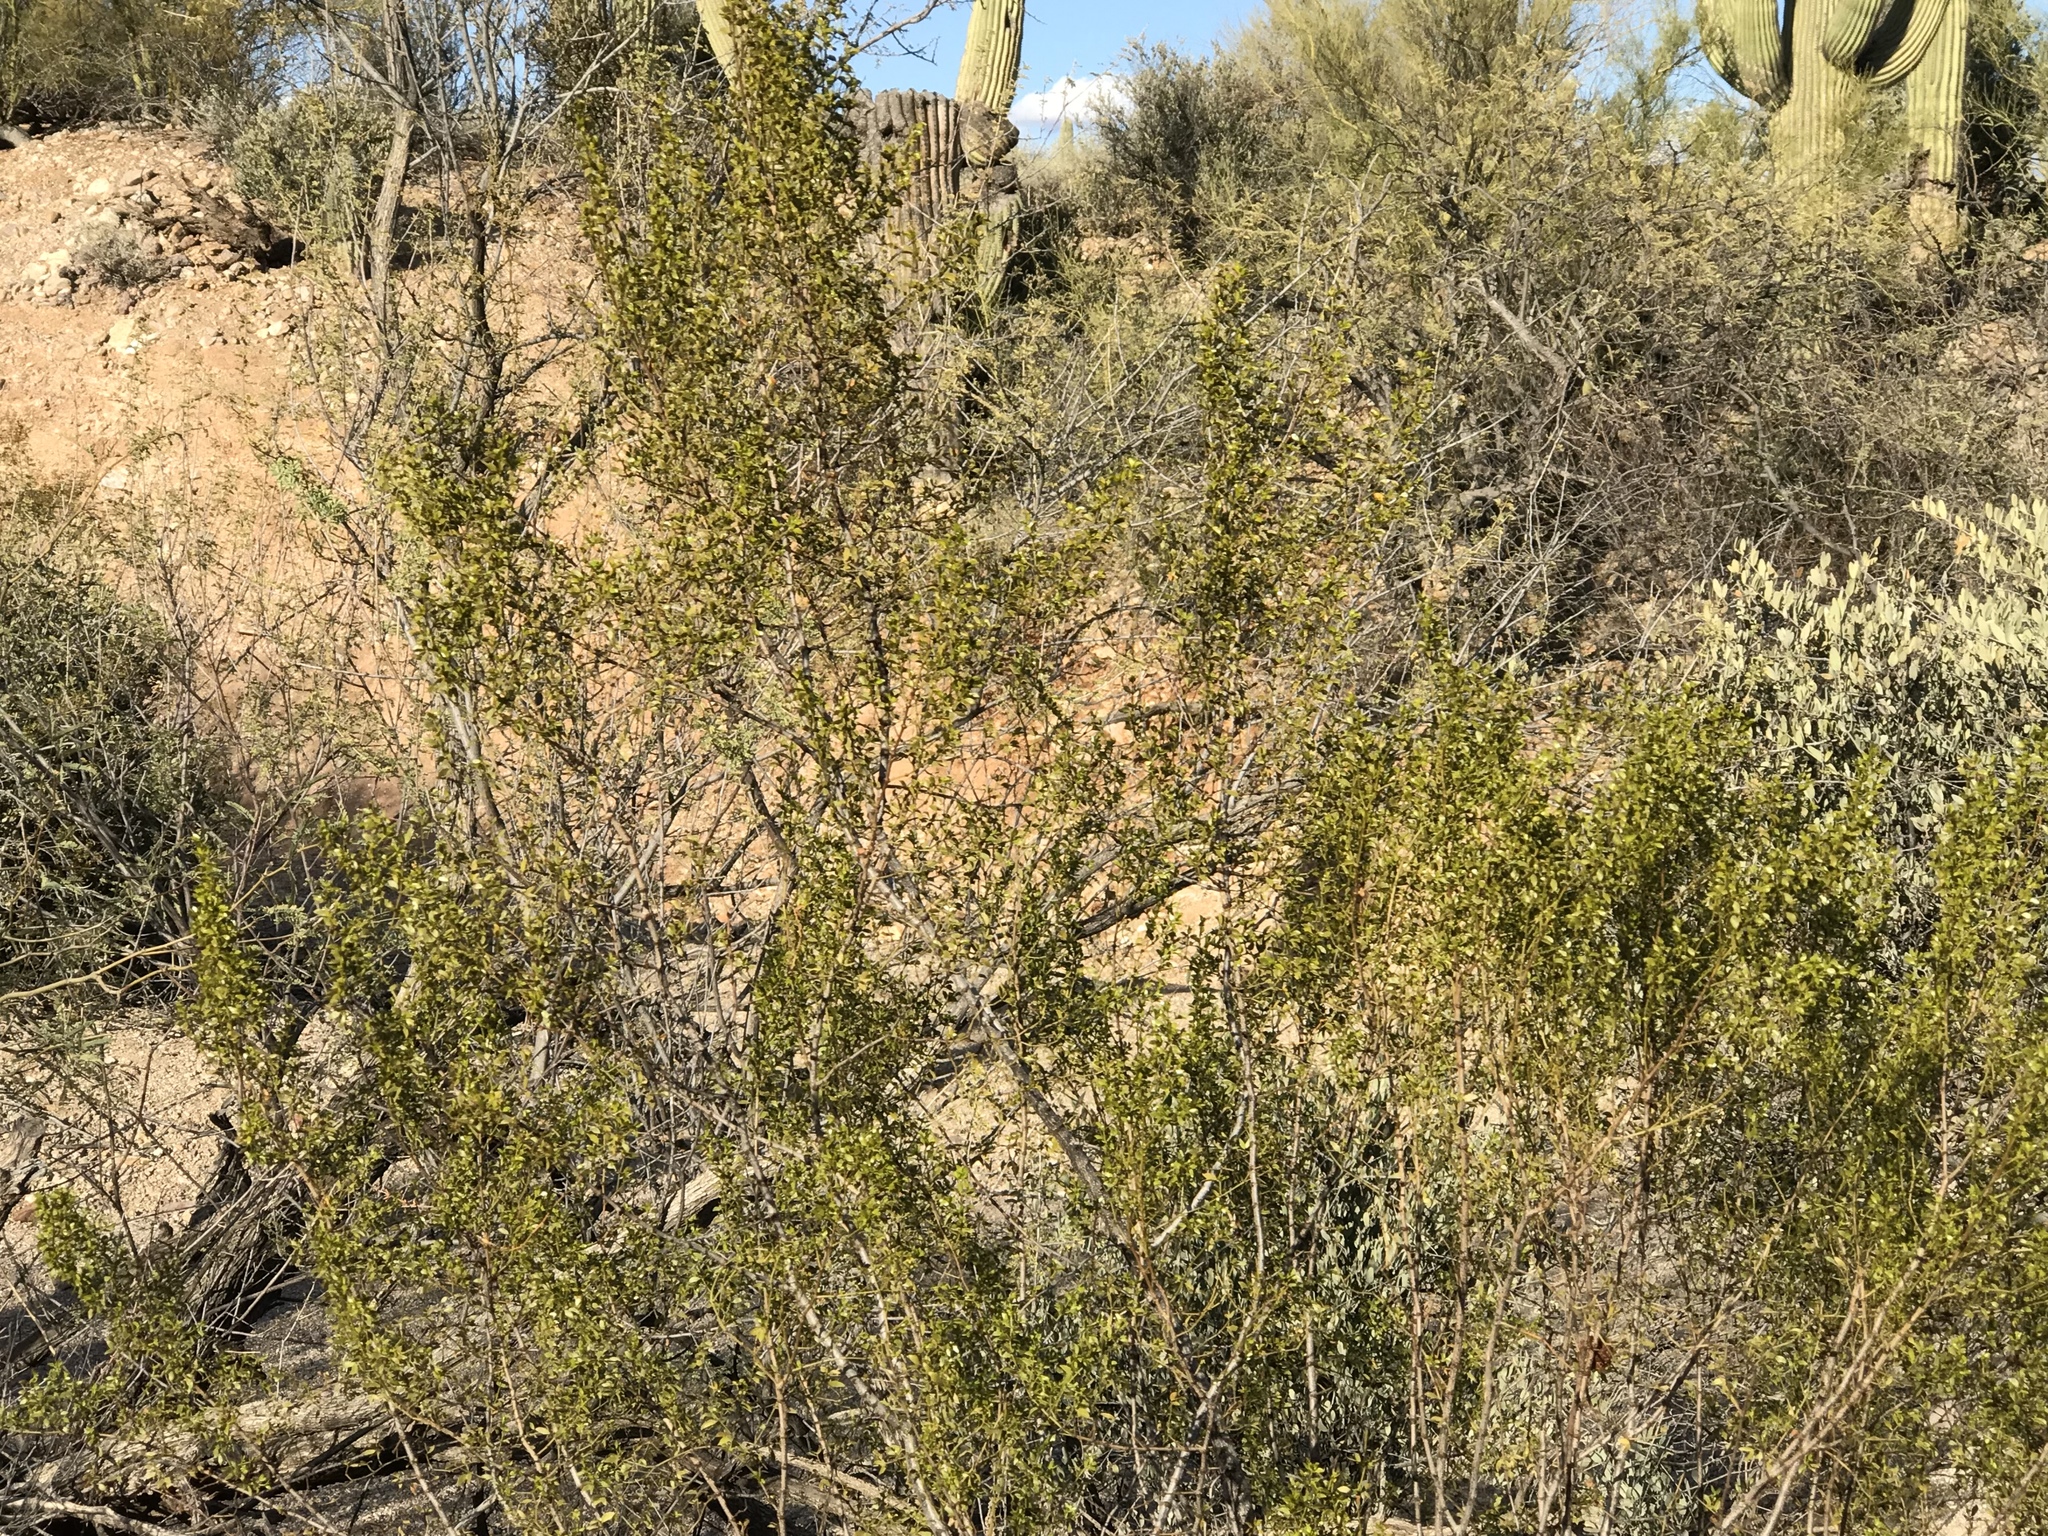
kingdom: Plantae
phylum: Tracheophyta
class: Magnoliopsida
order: Zygophyllales
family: Zygophyllaceae
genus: Larrea
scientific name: Larrea tridentata
